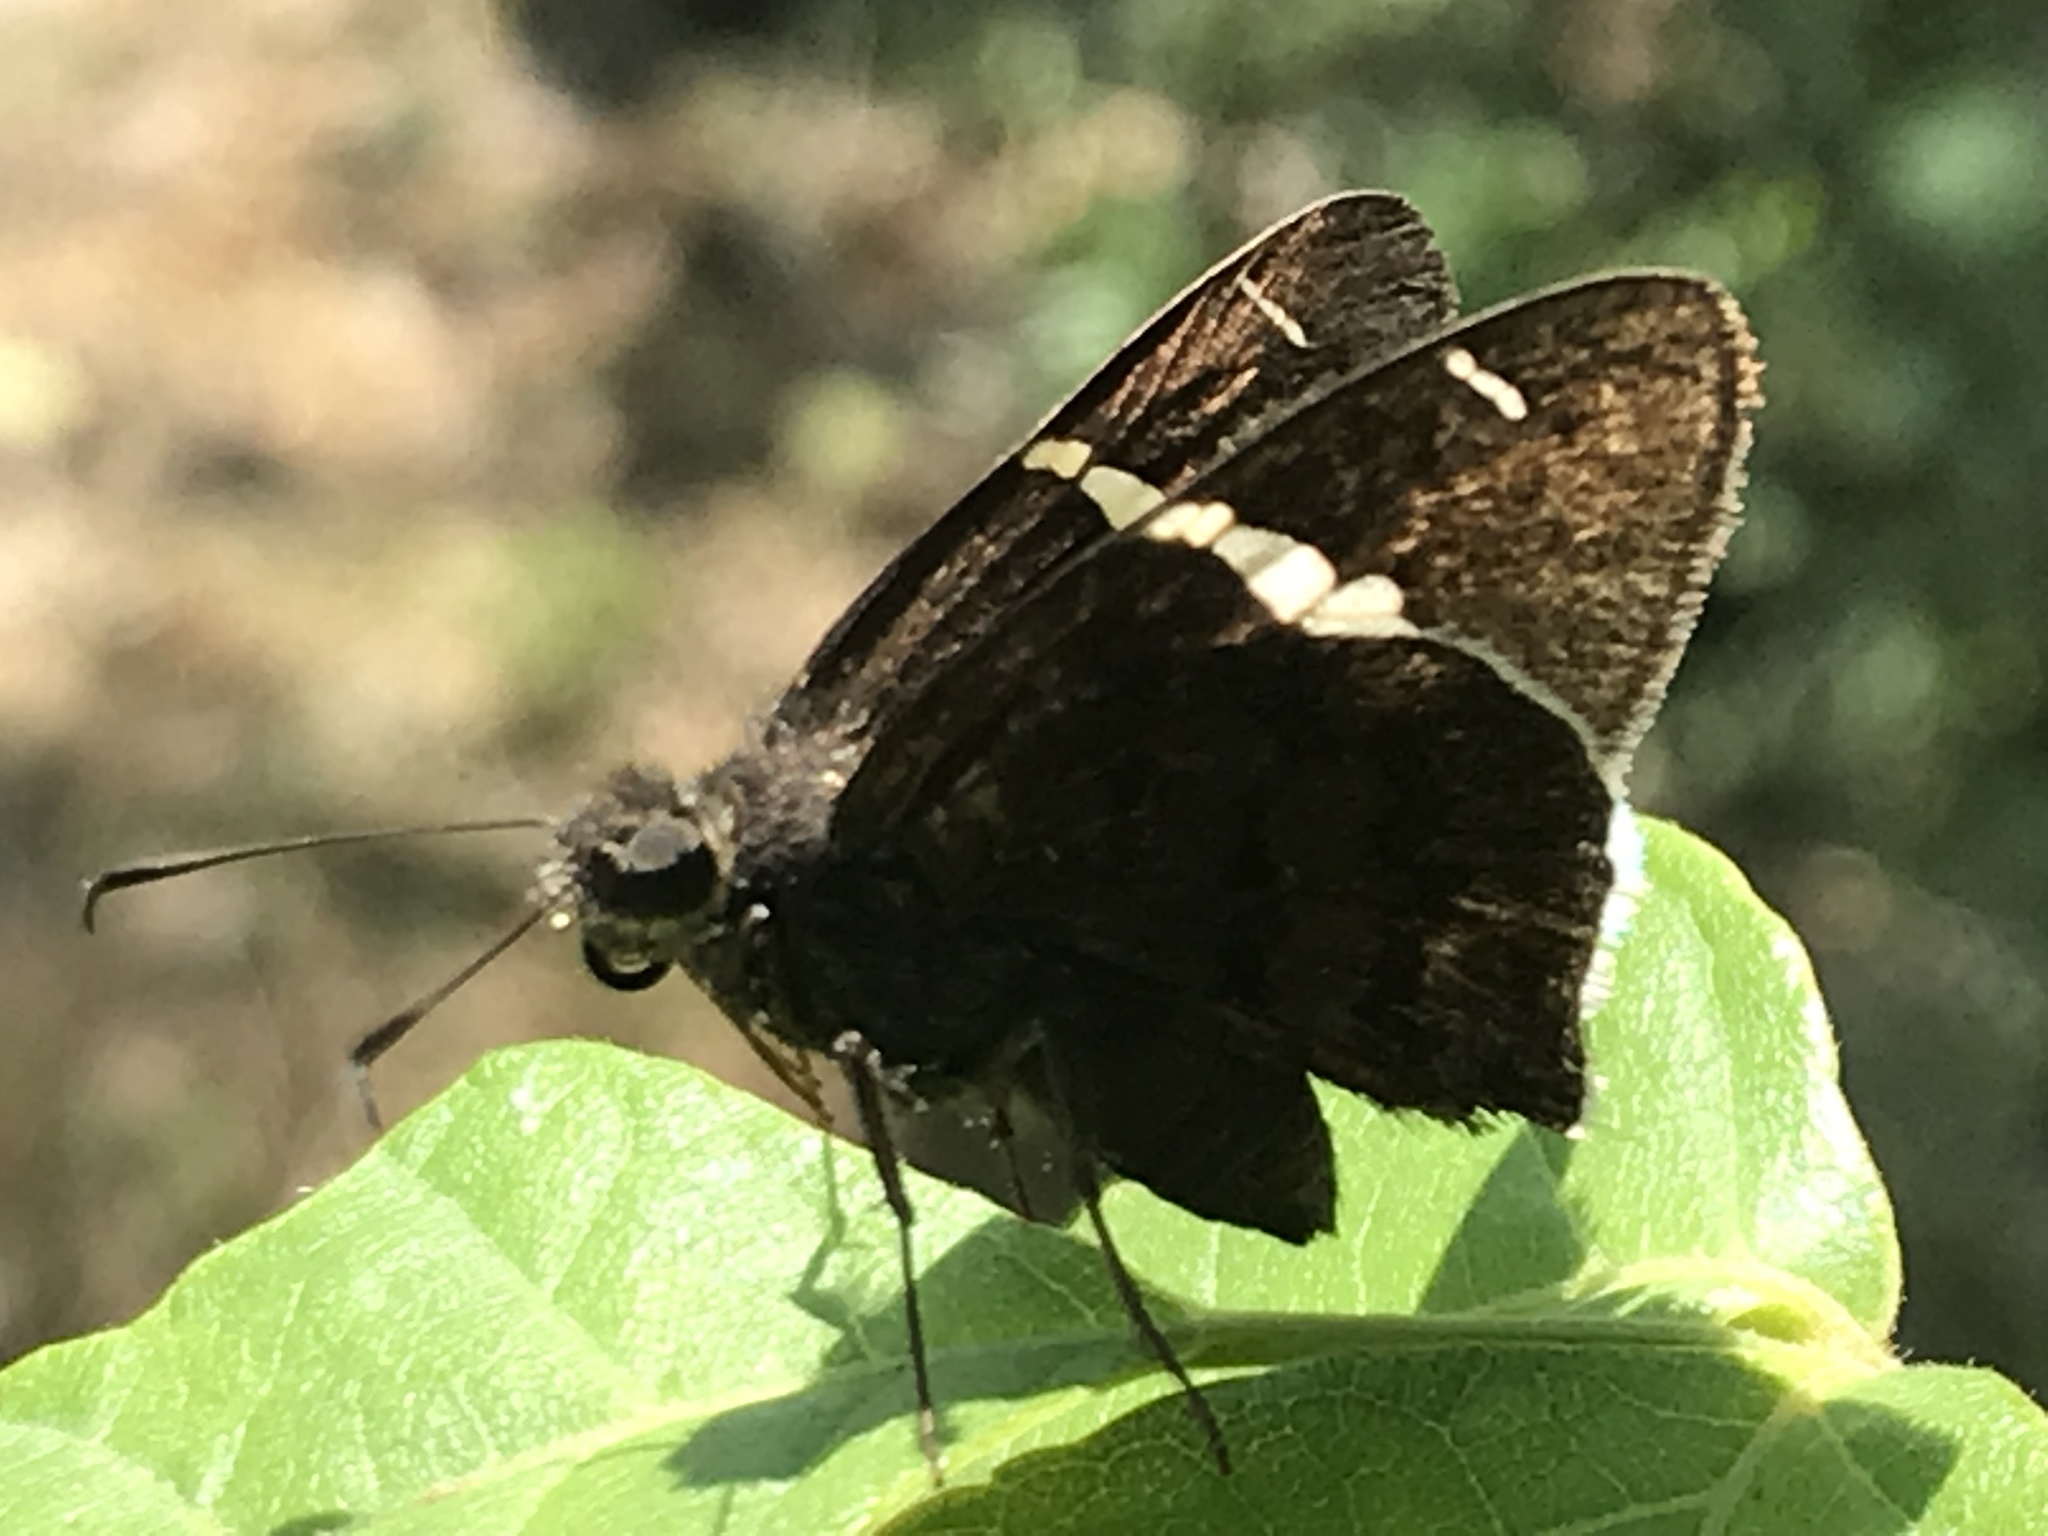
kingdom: Animalia
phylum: Arthropoda
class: Insecta
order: Lepidoptera
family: Hesperiidae
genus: Thorybes
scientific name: Thorybes cincta
